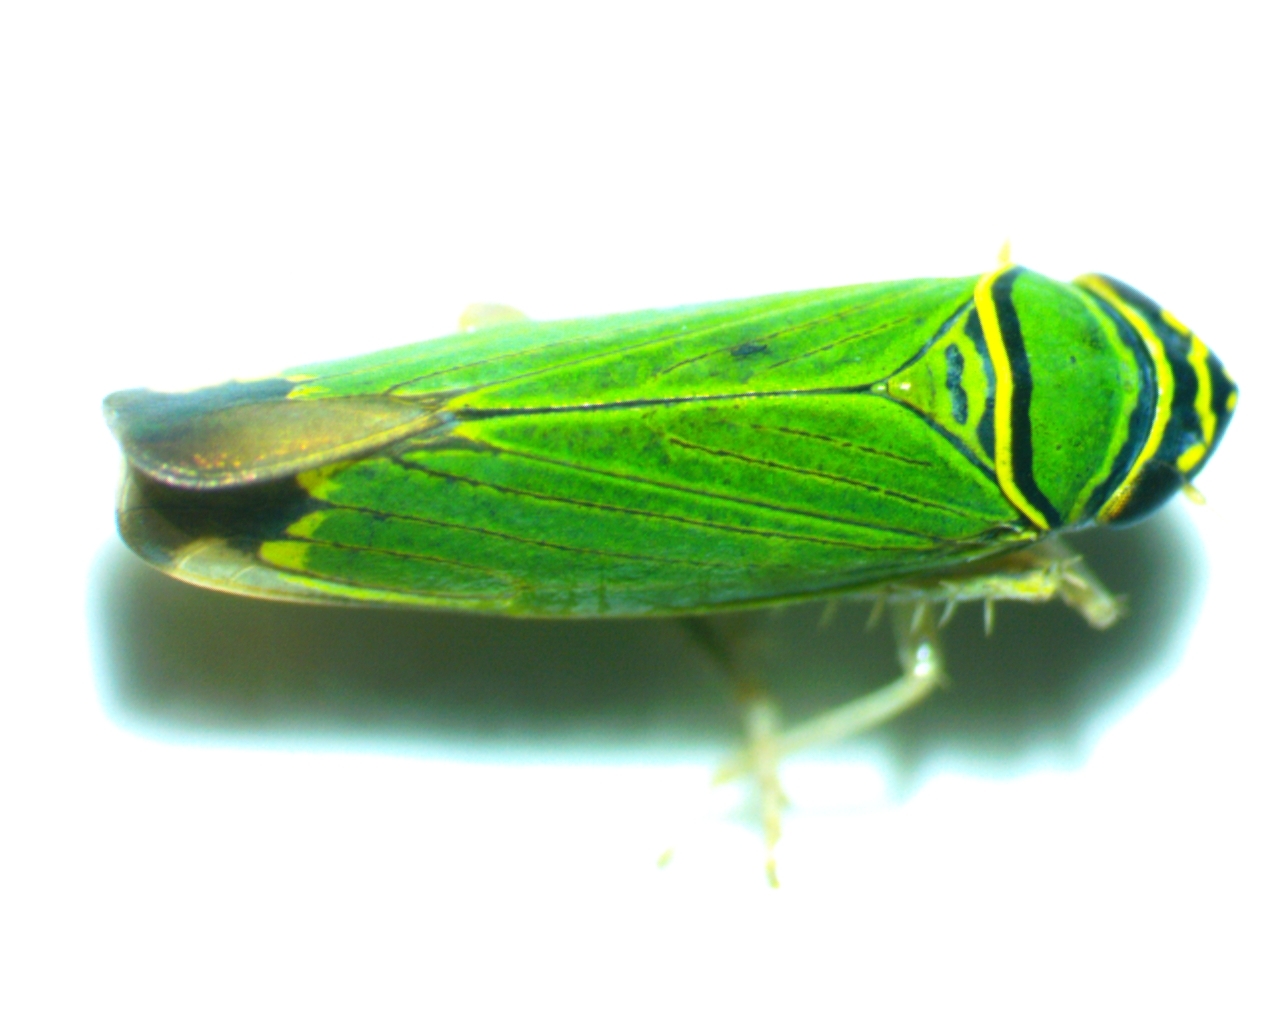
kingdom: Animalia
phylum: Arthropoda
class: Insecta
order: Hemiptera
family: Cicadellidae
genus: Tylozygus
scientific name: Tylozygus geometricus
